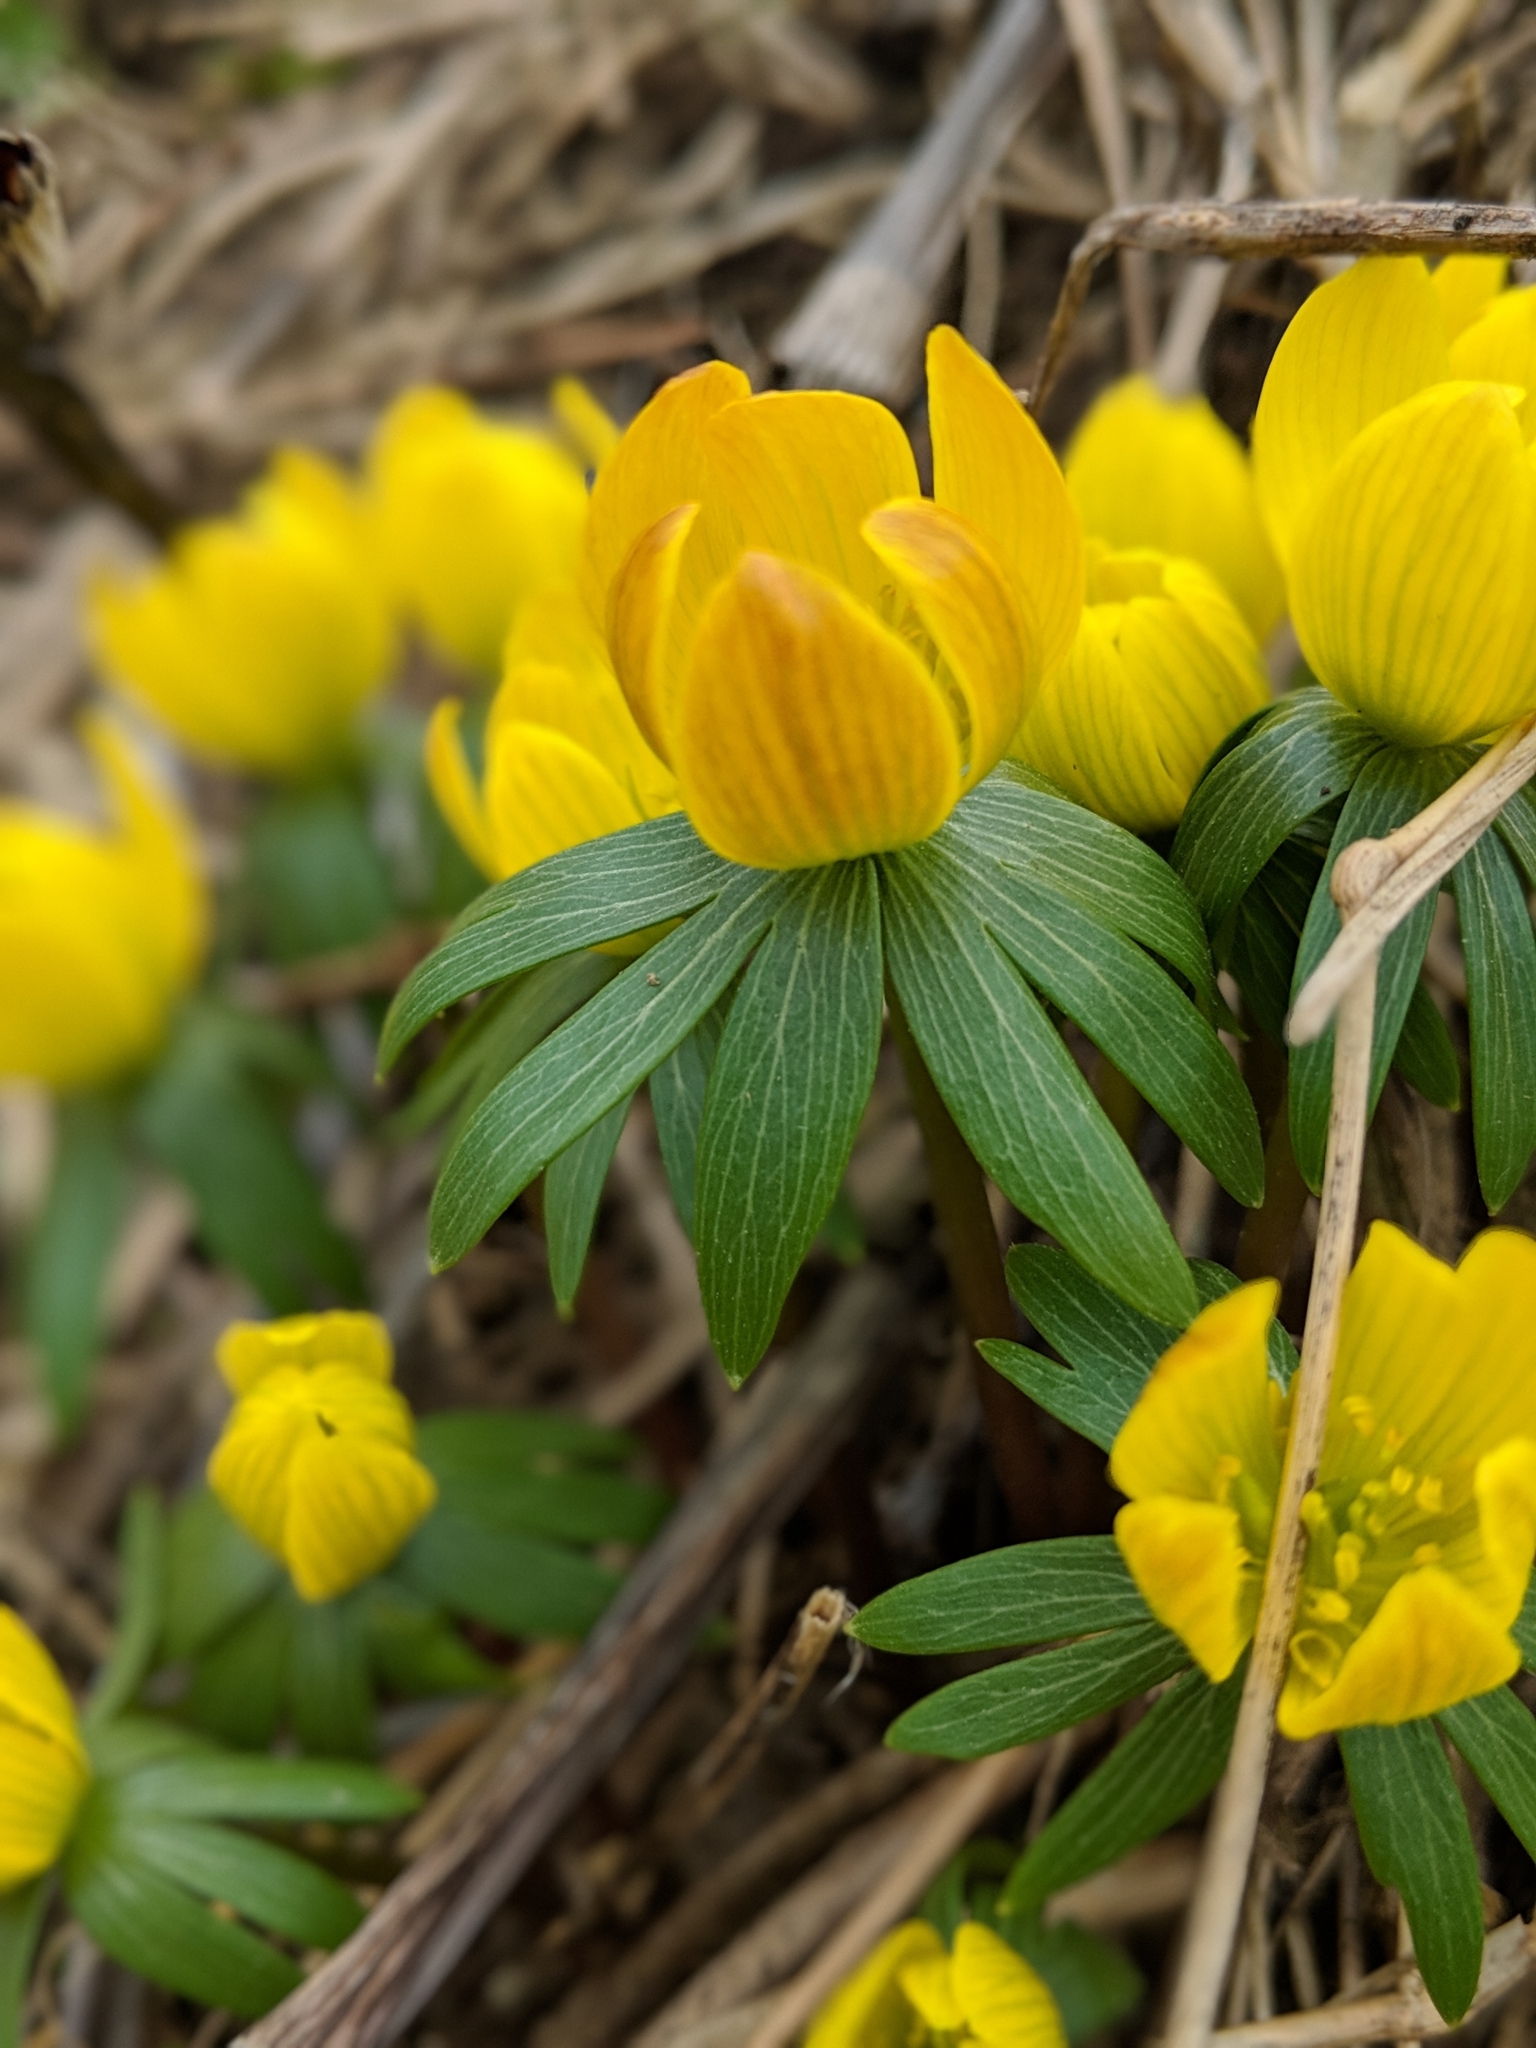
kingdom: Plantae
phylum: Tracheophyta
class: Magnoliopsida
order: Ranunculales
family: Ranunculaceae
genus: Eranthis
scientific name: Eranthis hyemalis
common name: Winter aconite
